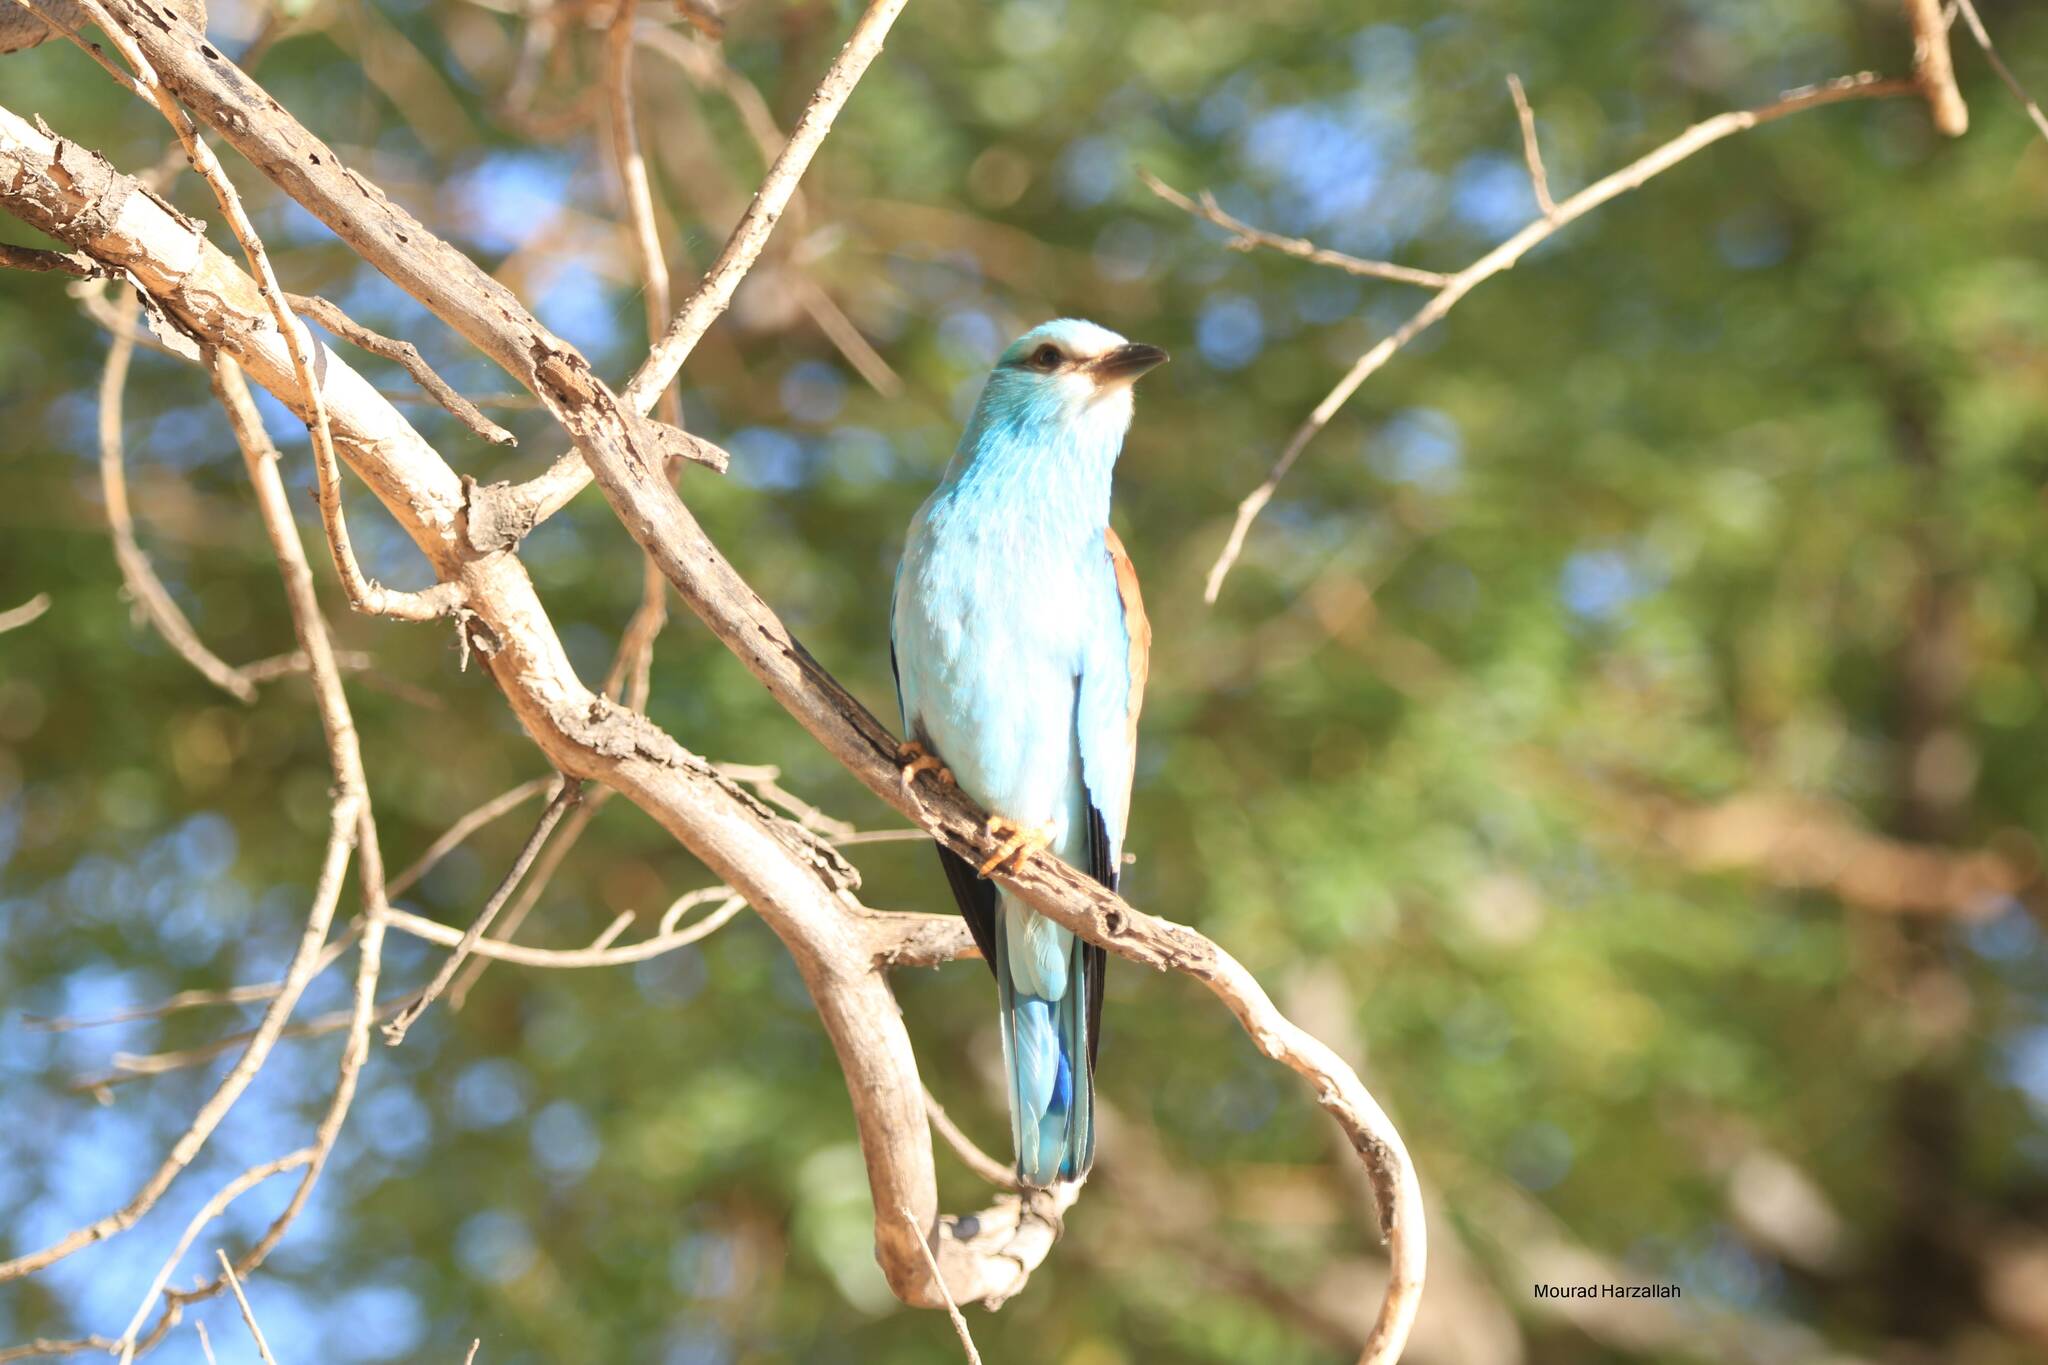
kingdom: Animalia
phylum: Chordata
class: Aves
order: Coraciiformes
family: Coraciidae
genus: Coracias
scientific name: Coracias garrulus
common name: European roller
